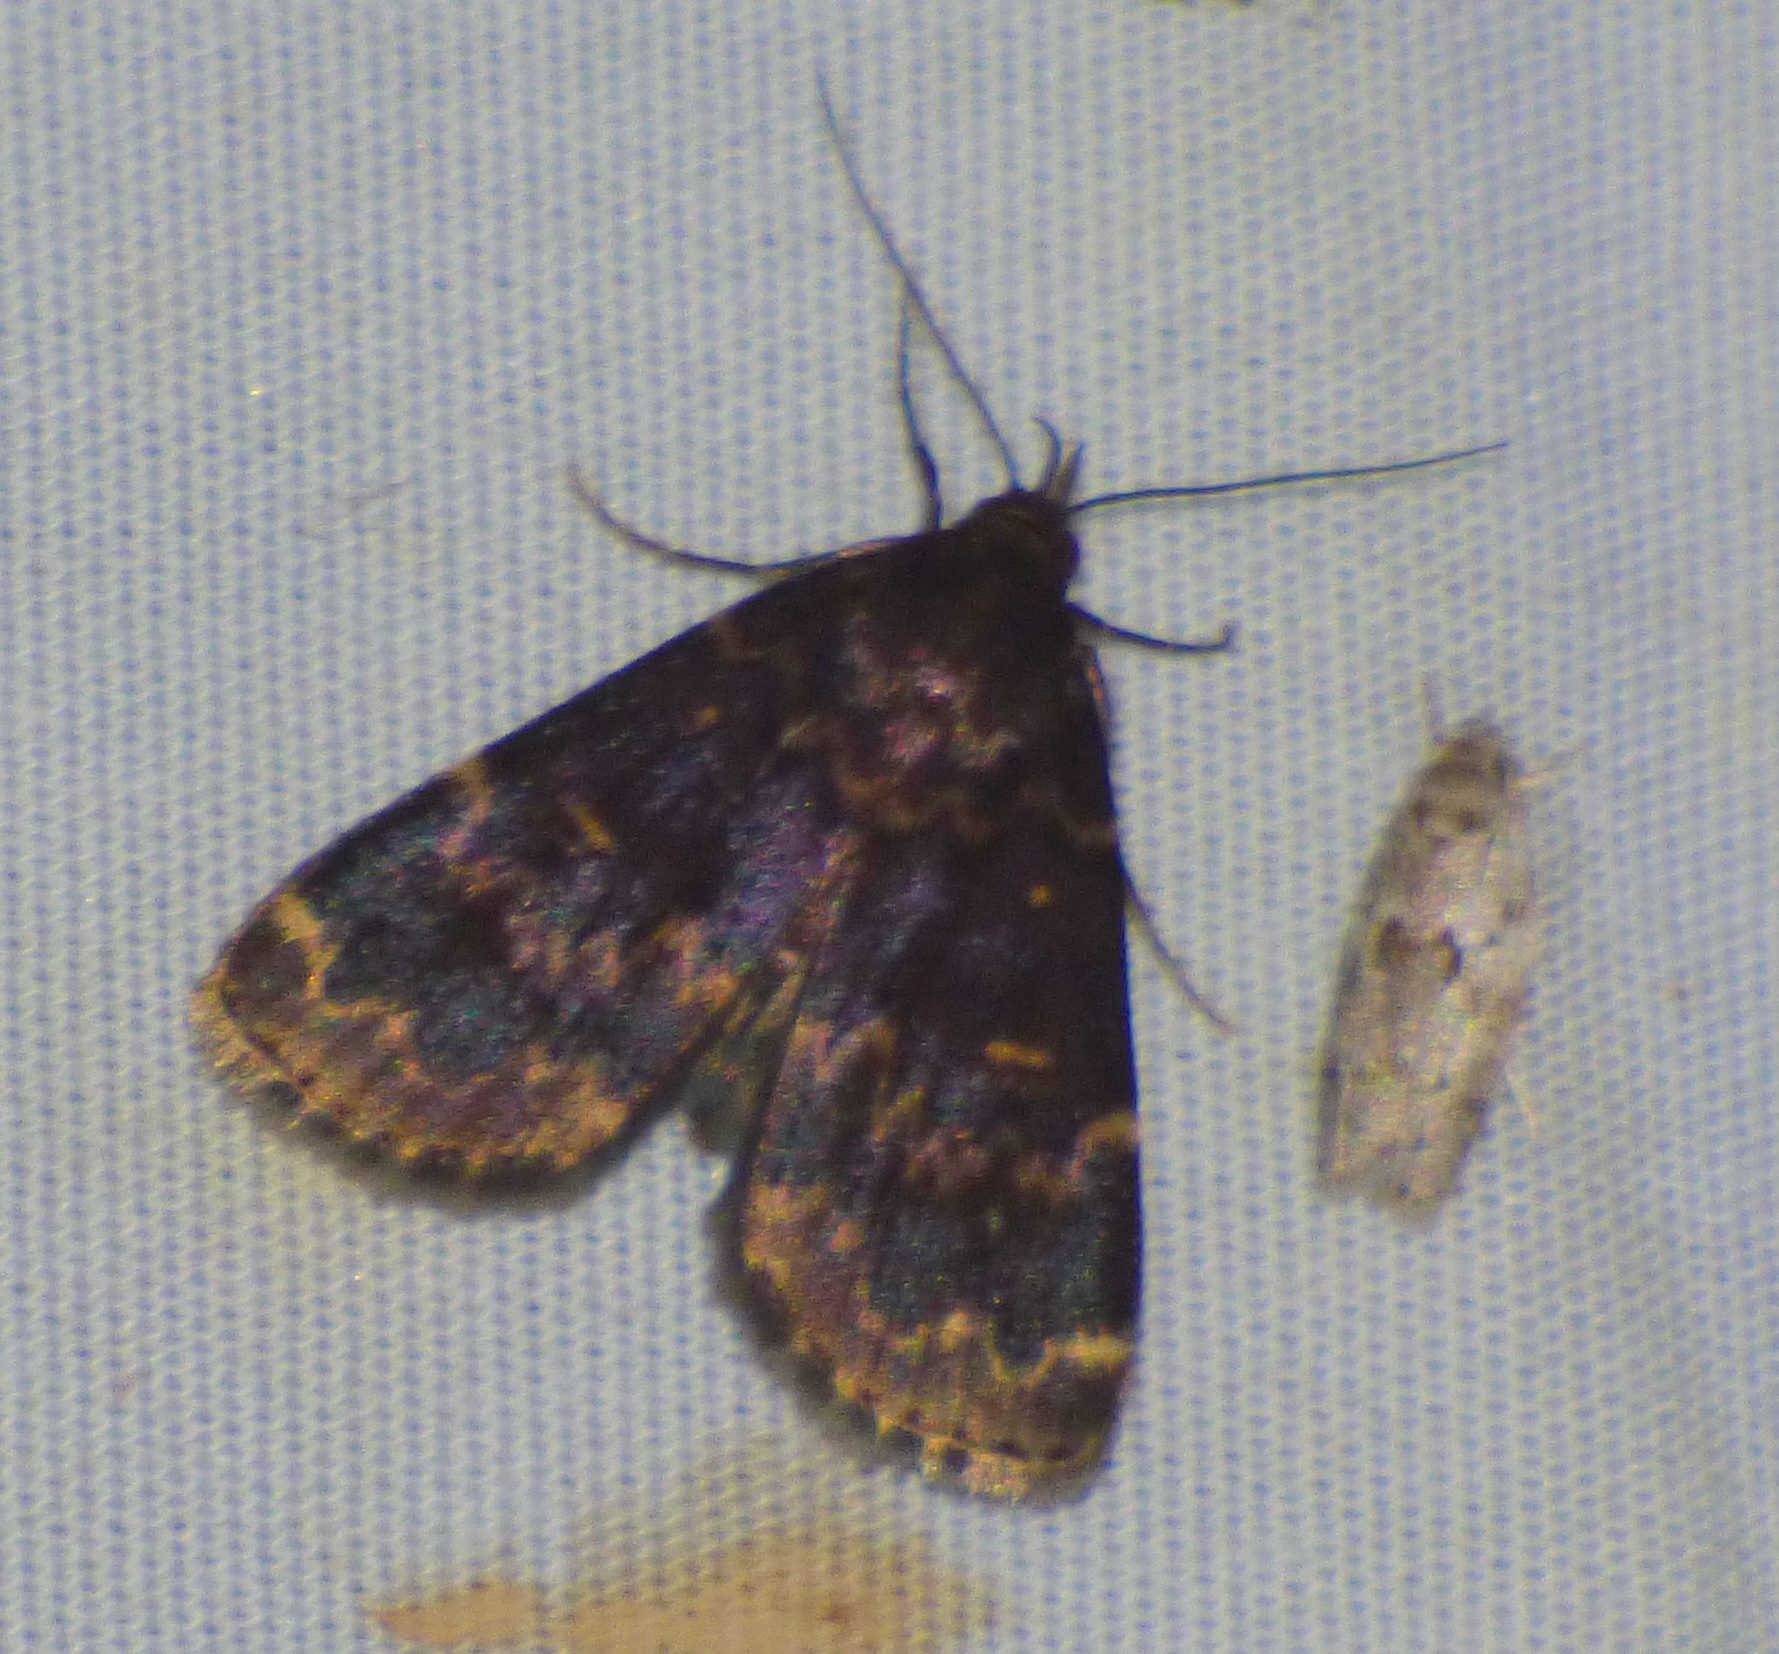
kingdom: Animalia
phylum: Arthropoda
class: Insecta
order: Lepidoptera
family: Erebidae
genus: Idia
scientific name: Idia lubricalis
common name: Twin-striped tabby
